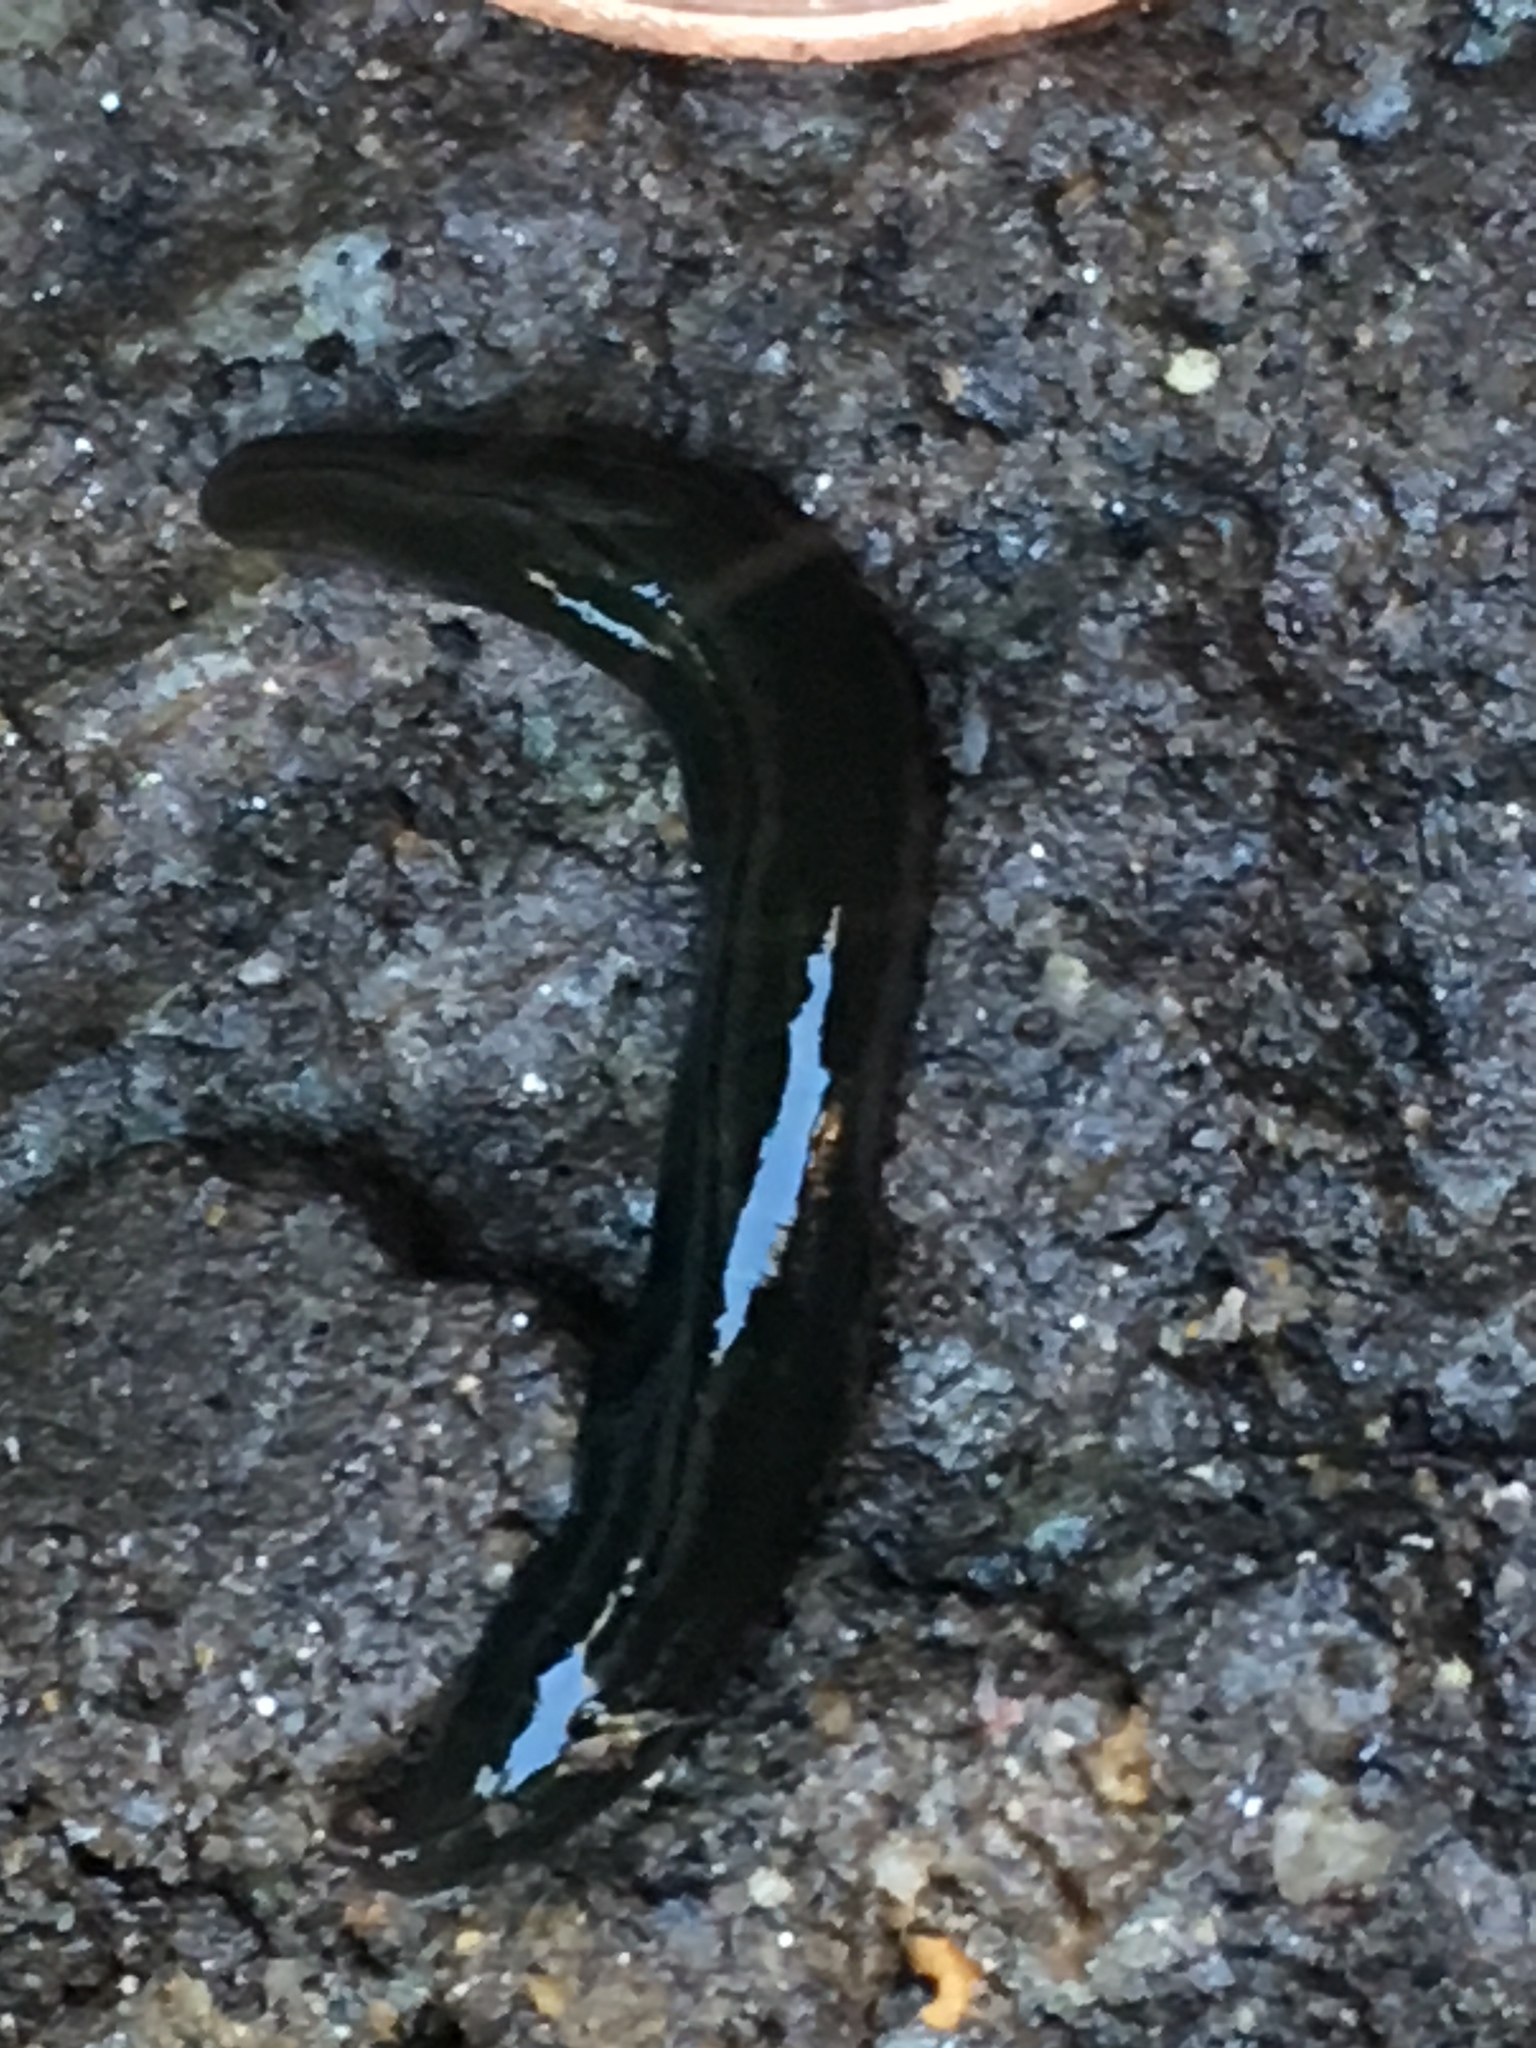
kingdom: Animalia
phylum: Platyhelminthes
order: Tricladida
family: Geoplanidae
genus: Parakontikia
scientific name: Parakontikia ventrolineata
